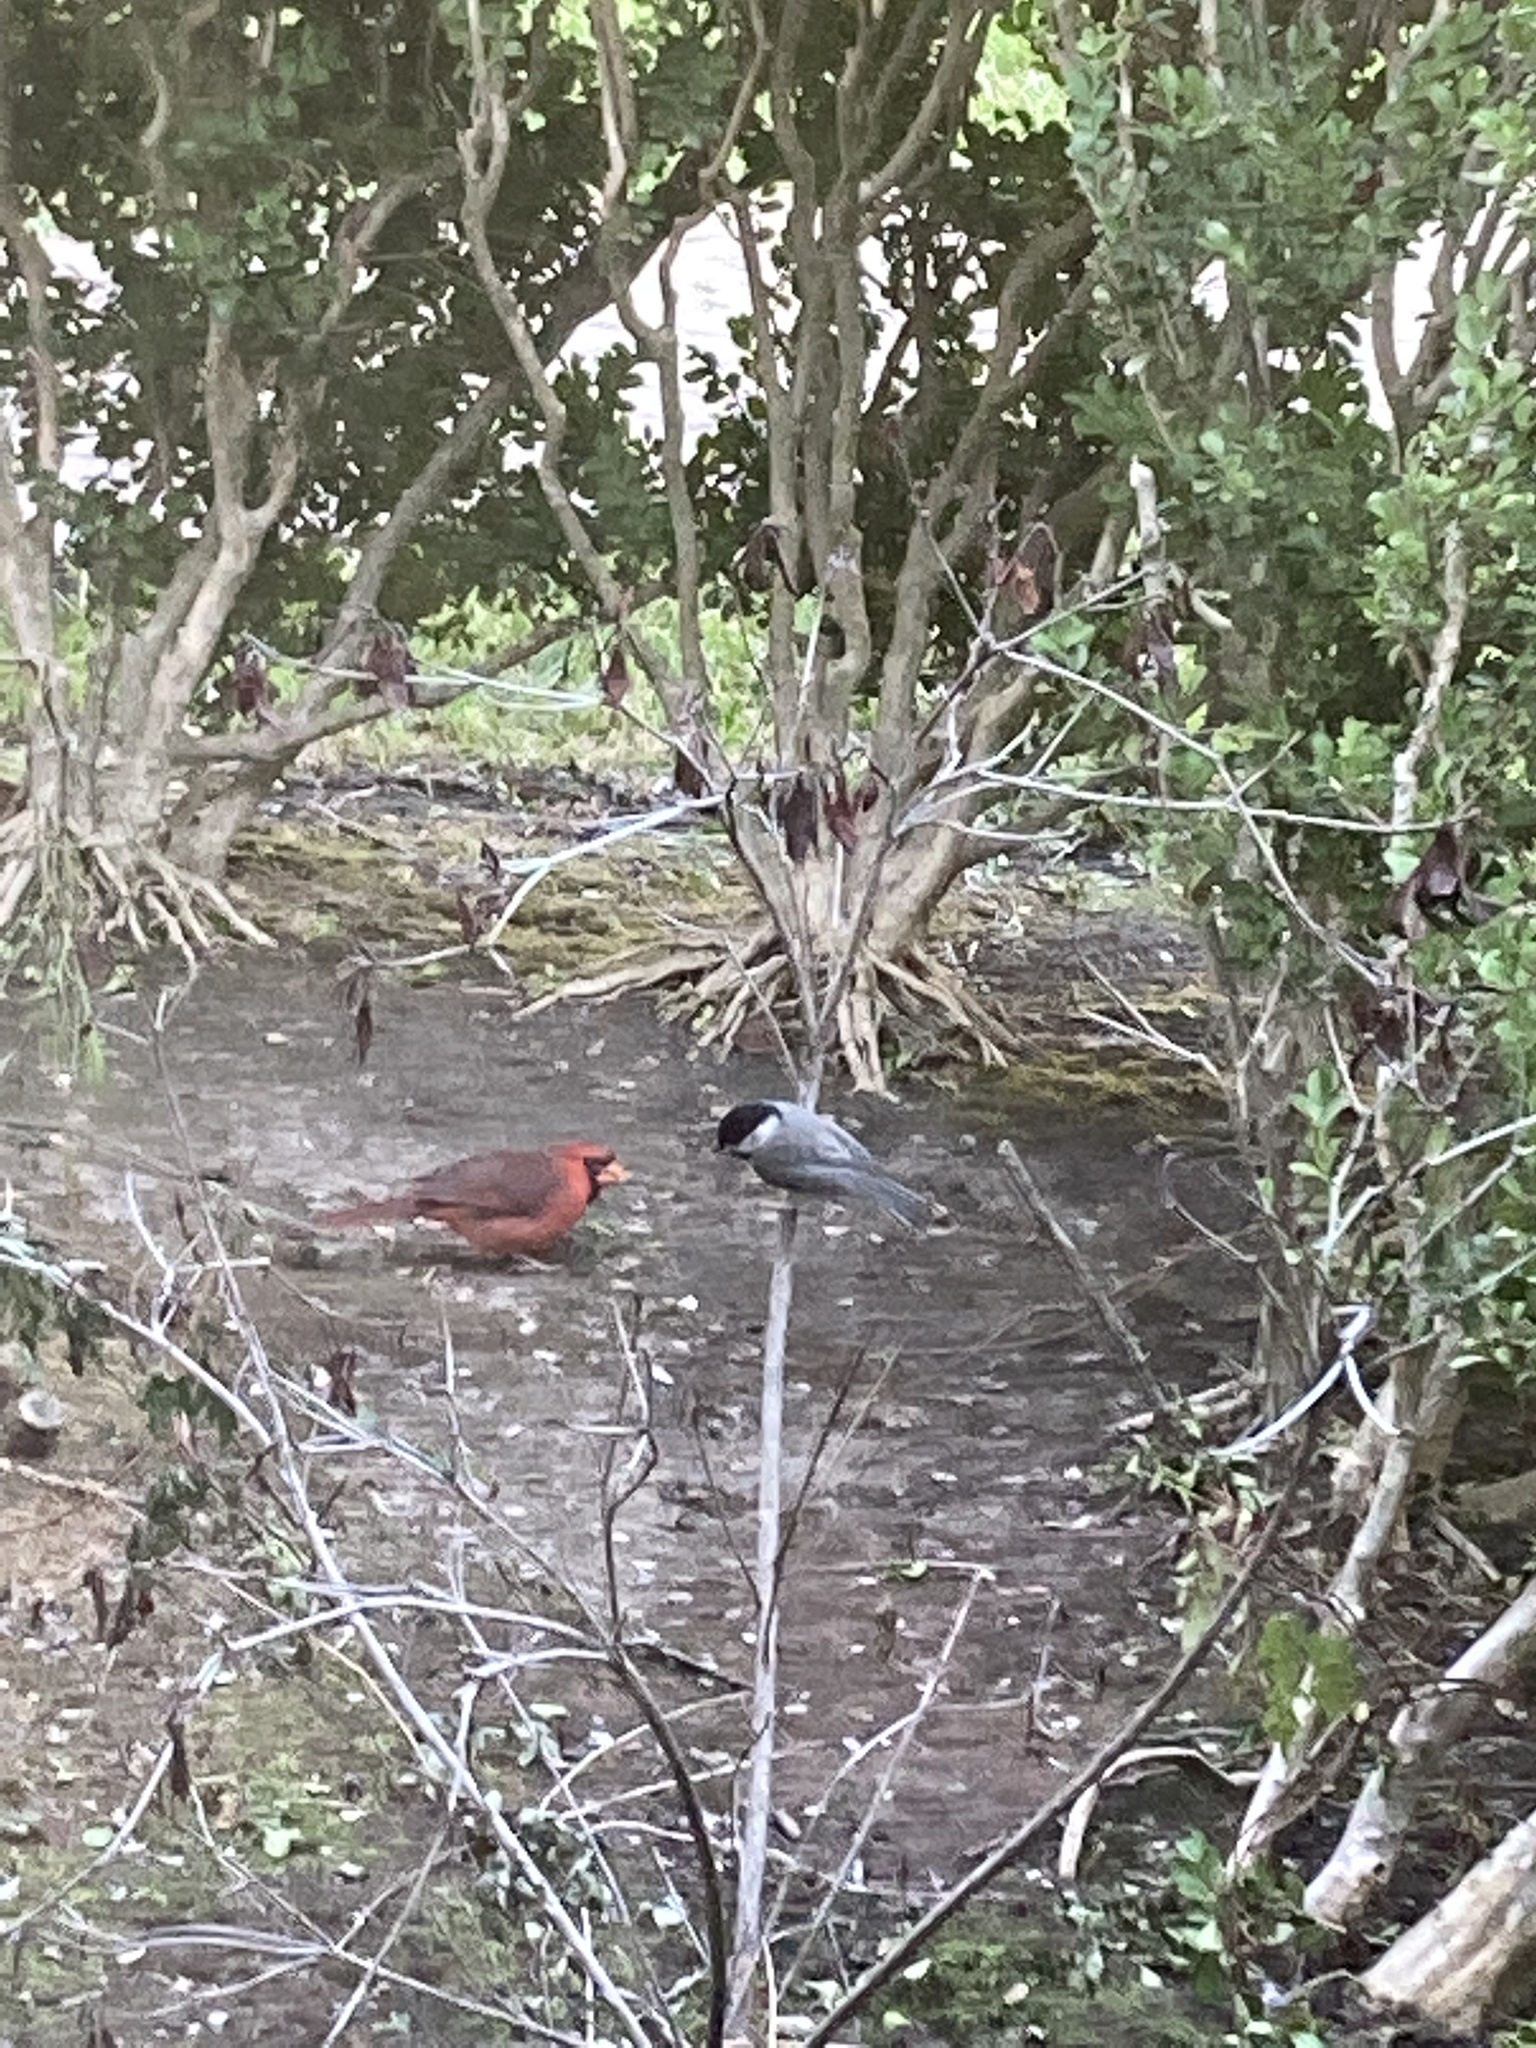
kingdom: Animalia
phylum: Chordata
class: Aves
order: Passeriformes
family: Cardinalidae
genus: Cardinalis
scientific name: Cardinalis cardinalis
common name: Northern cardinal
